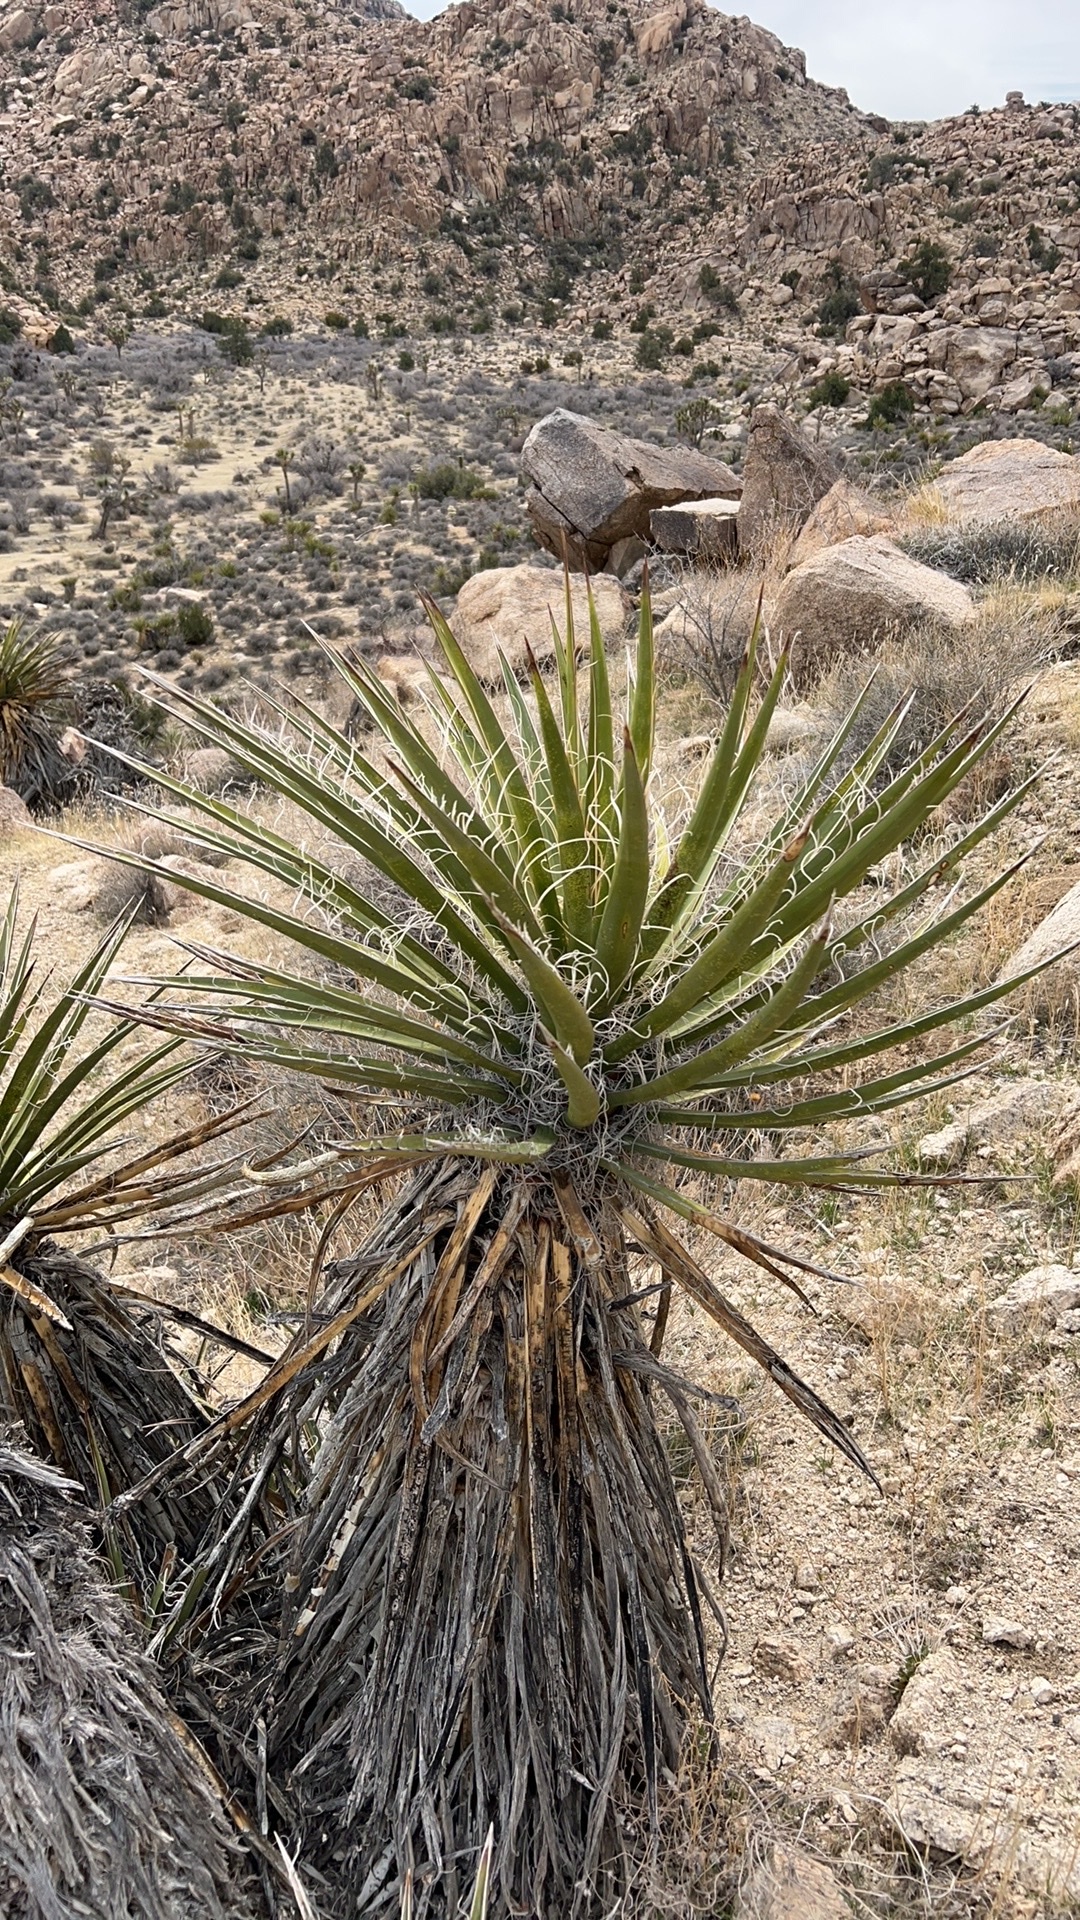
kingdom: Plantae
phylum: Tracheophyta
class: Liliopsida
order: Asparagales
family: Asparagaceae
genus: Yucca
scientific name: Yucca schidigera
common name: Mojave yucca
